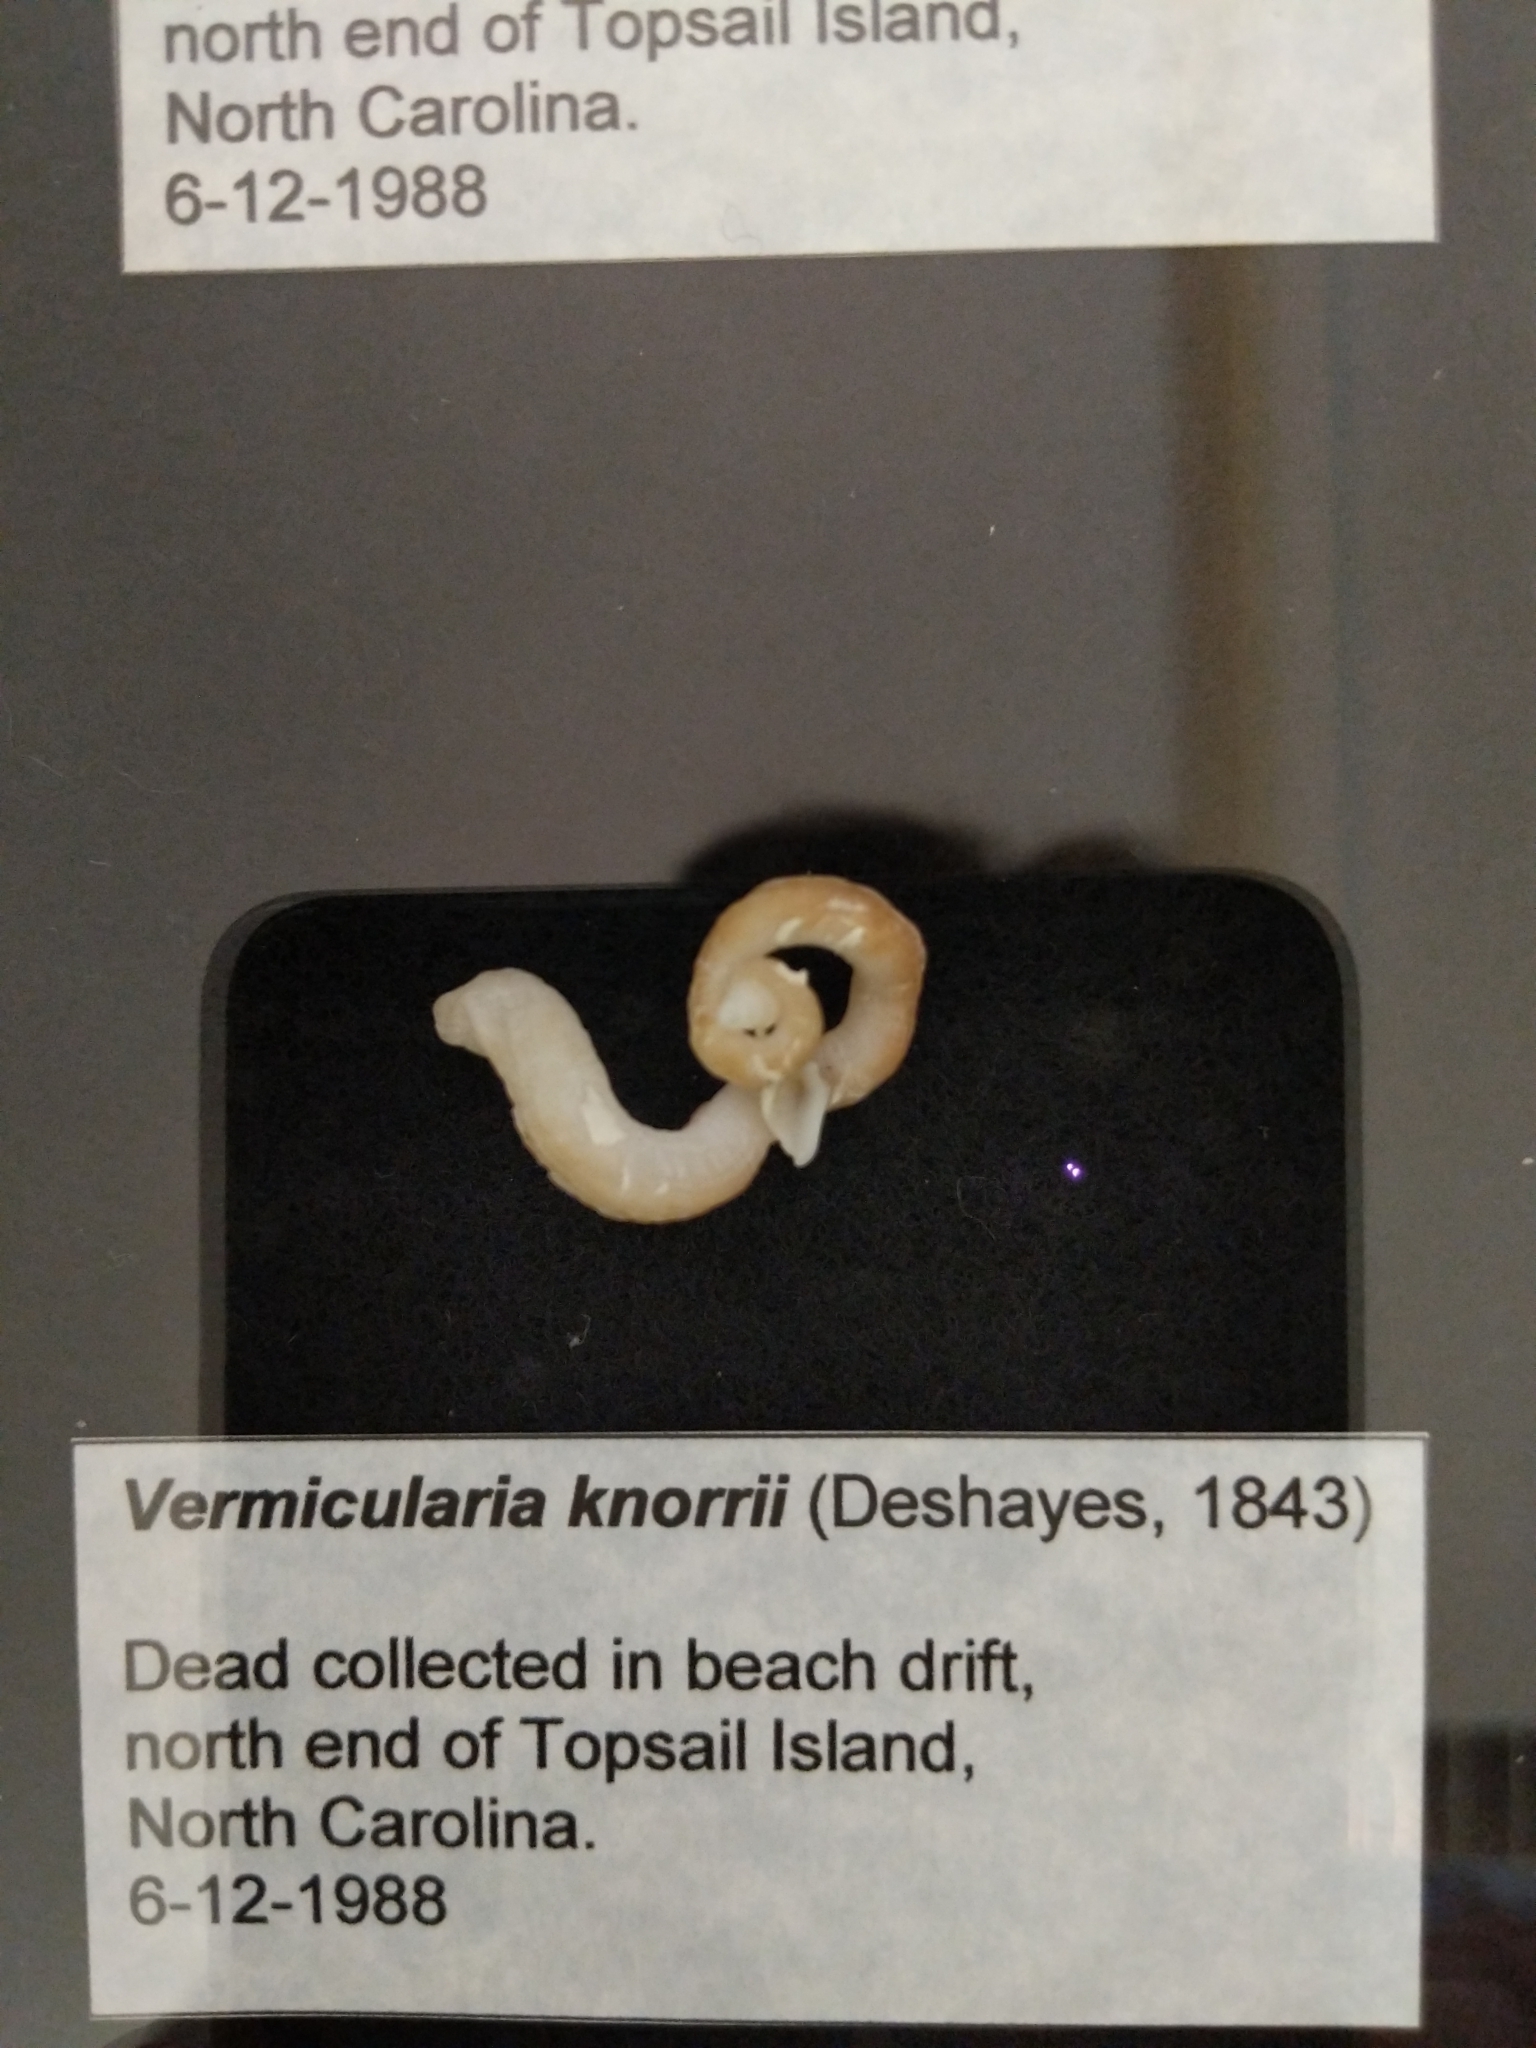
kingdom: Animalia
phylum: Mollusca
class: Gastropoda
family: Turritellidae
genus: Vermicularia
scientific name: Vermicularia lumbricalis
